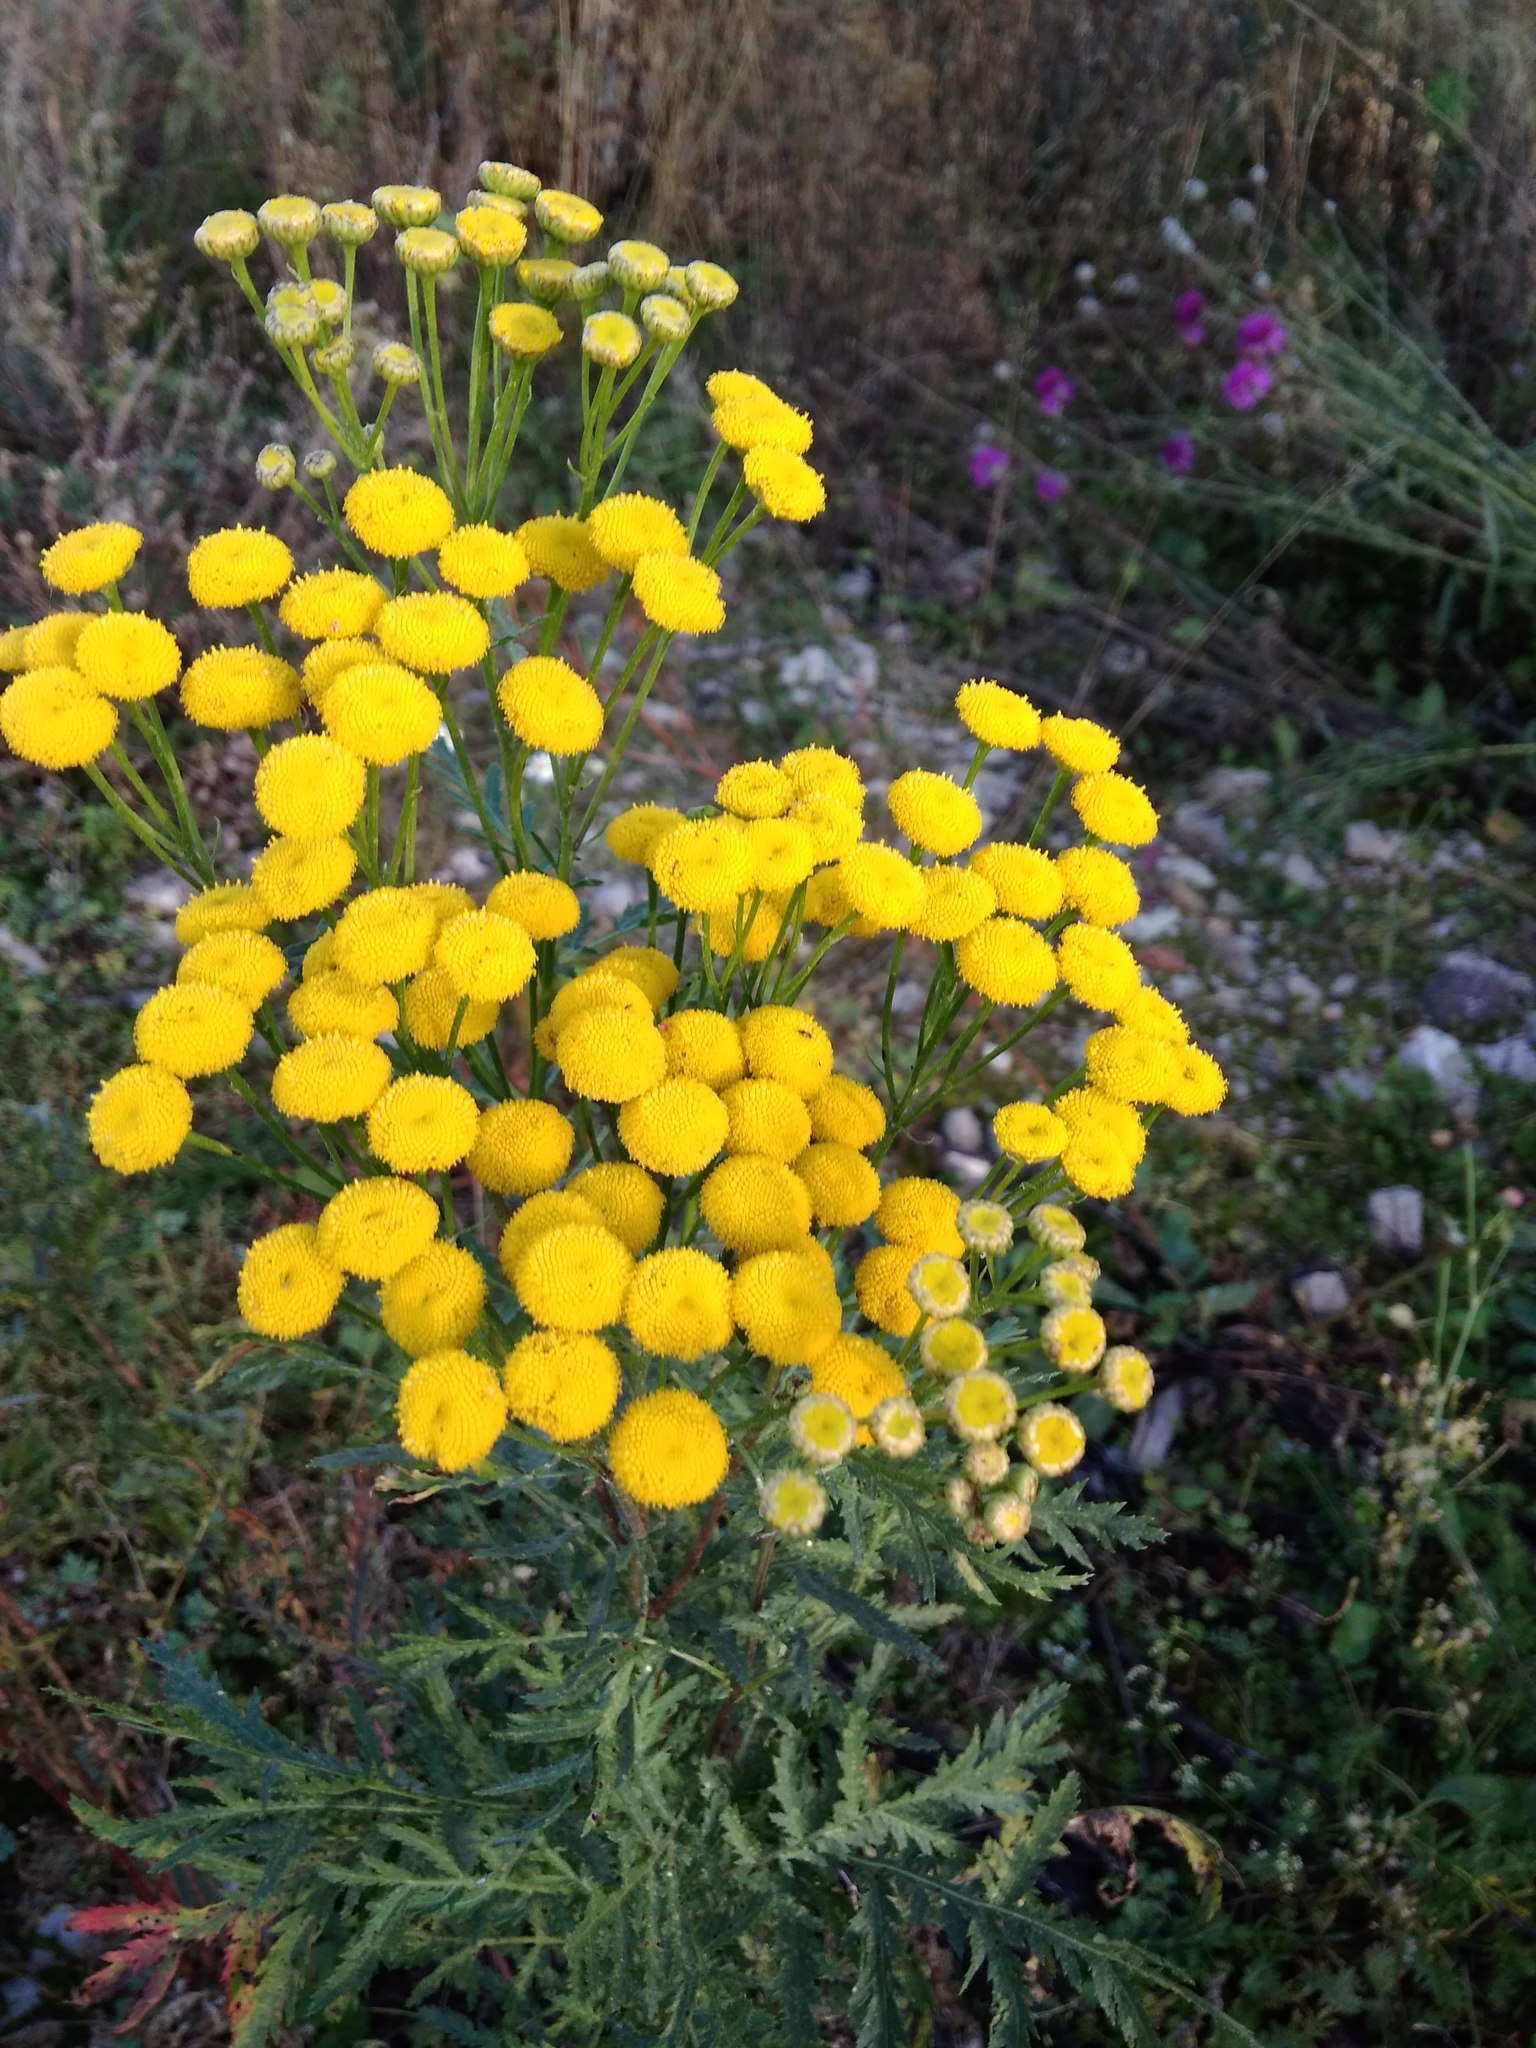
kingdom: Plantae
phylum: Tracheophyta
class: Magnoliopsida
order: Asterales
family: Asteraceae
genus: Tanacetum
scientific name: Tanacetum vulgare
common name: Common tansy
